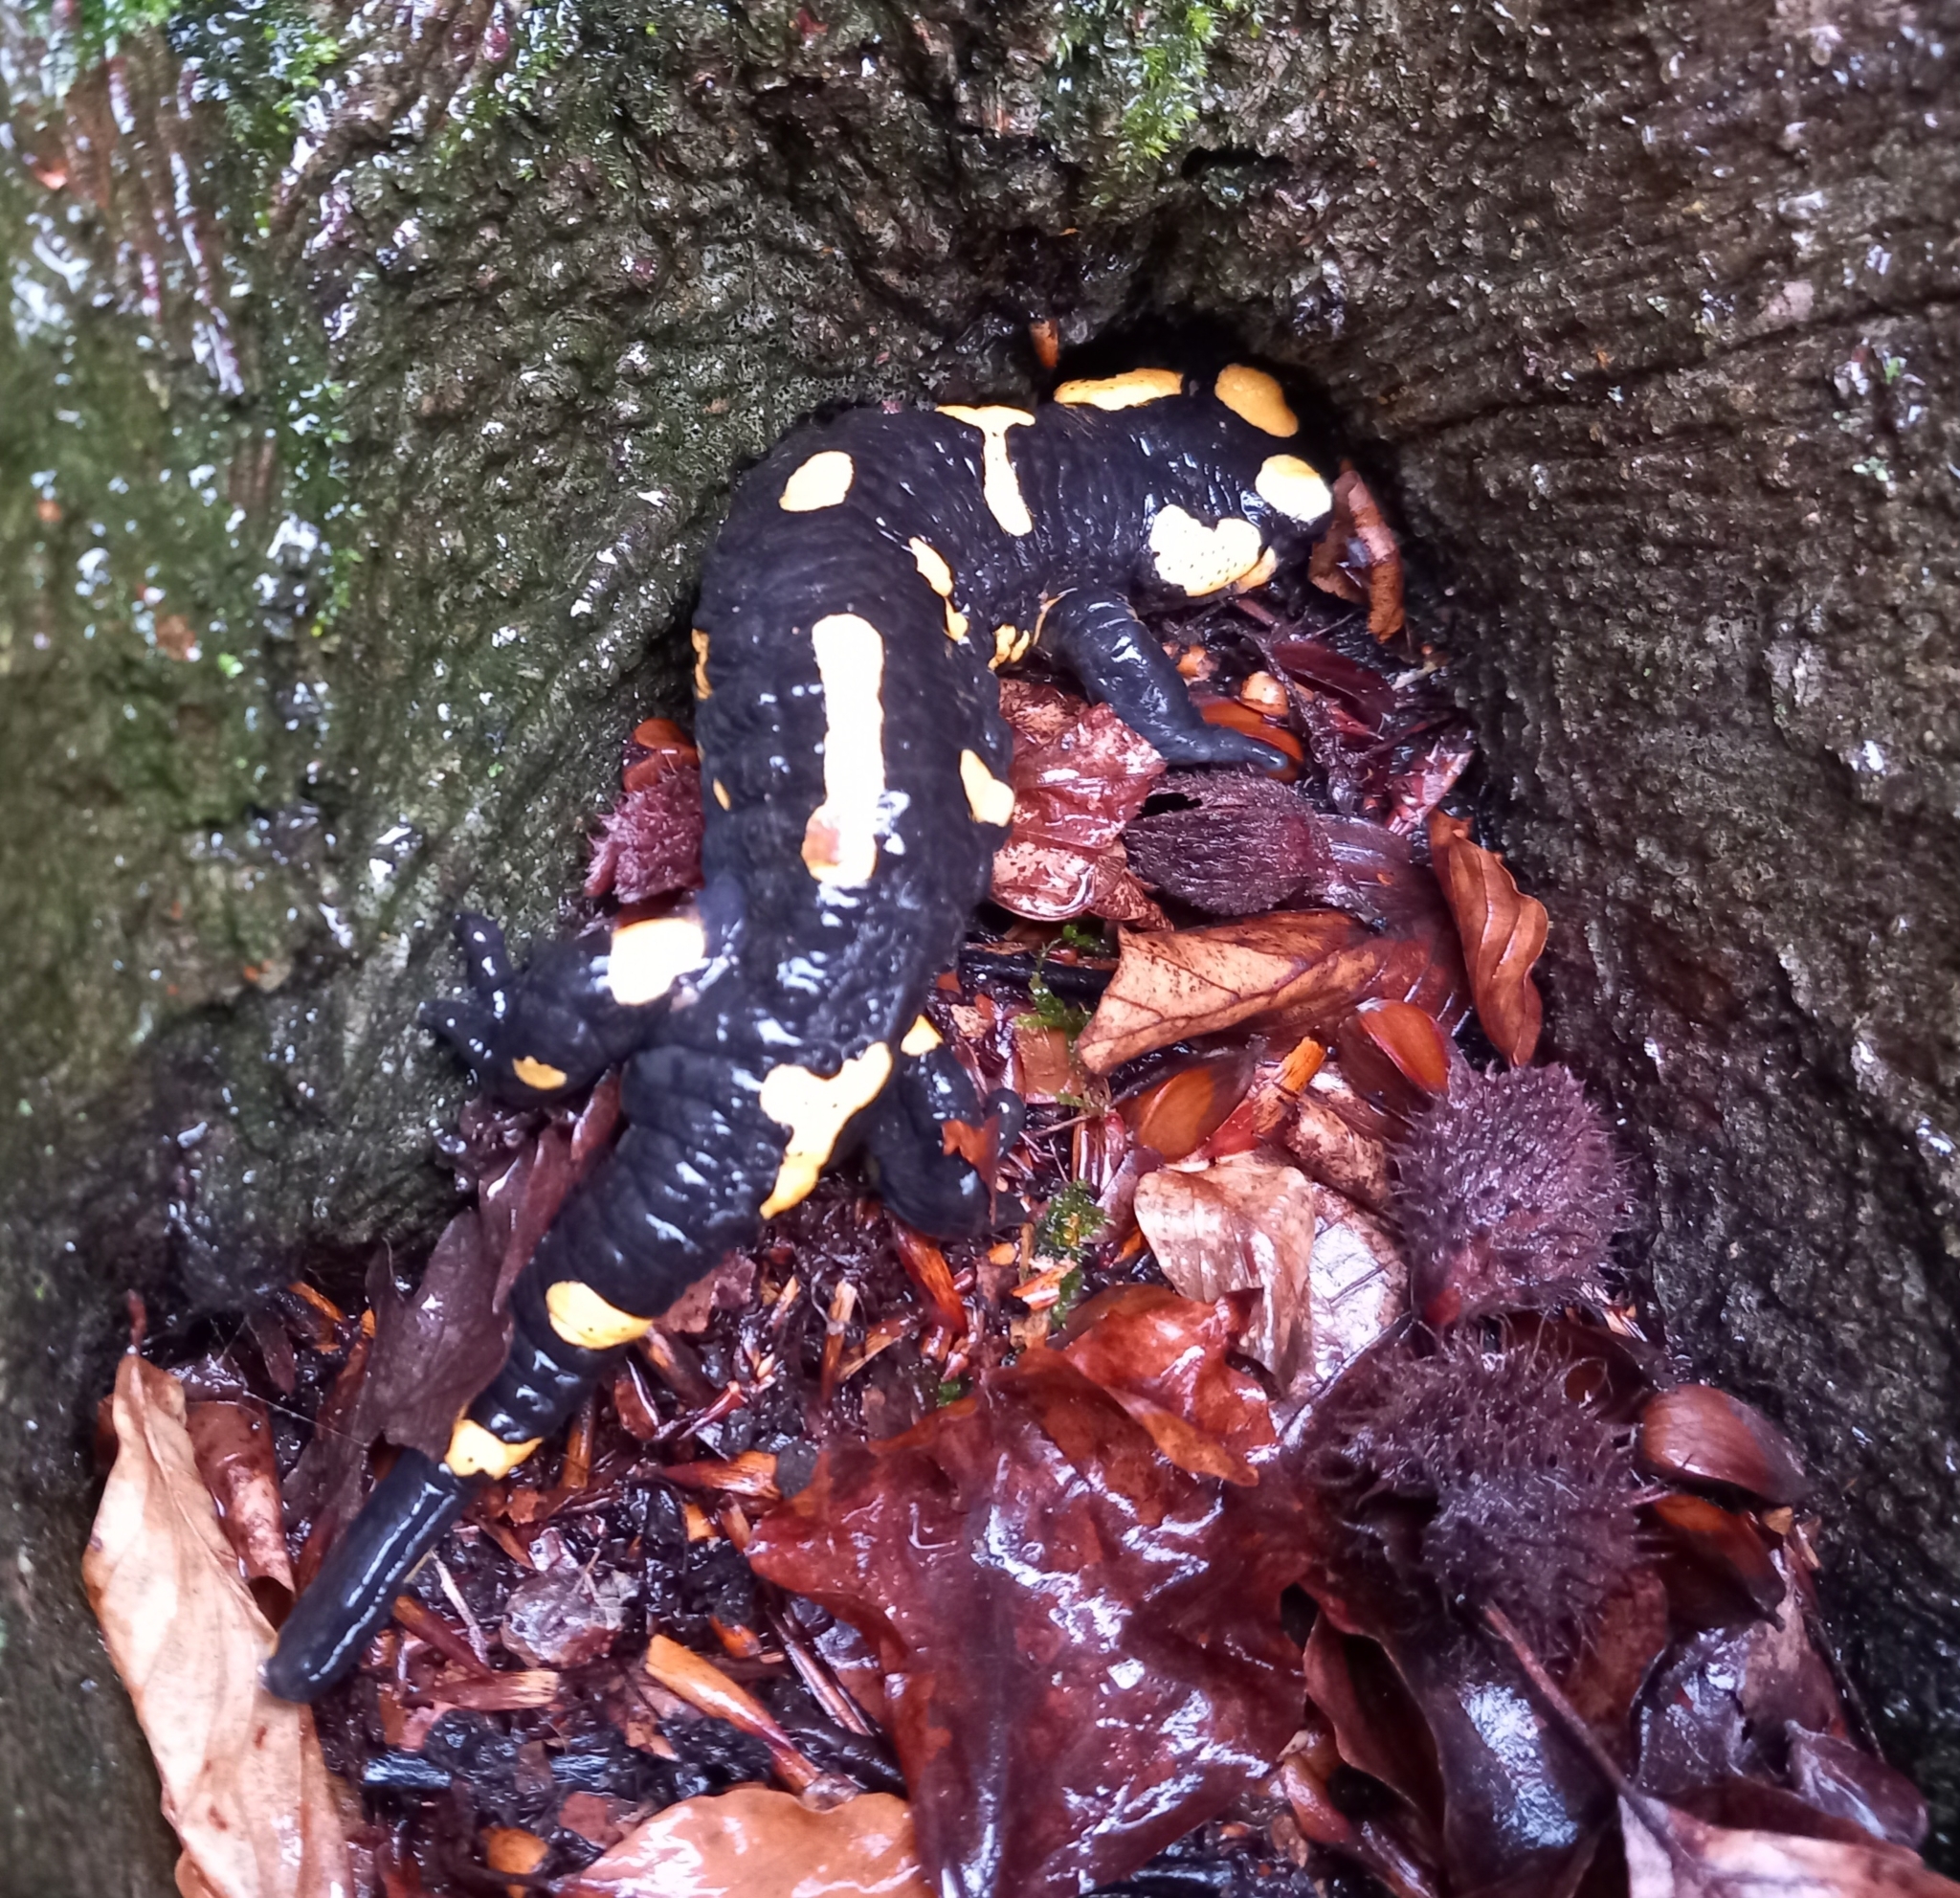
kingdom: Animalia
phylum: Chordata
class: Amphibia
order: Caudata
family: Salamandridae
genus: Salamandra
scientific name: Salamandra salamandra
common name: Fire salamander
